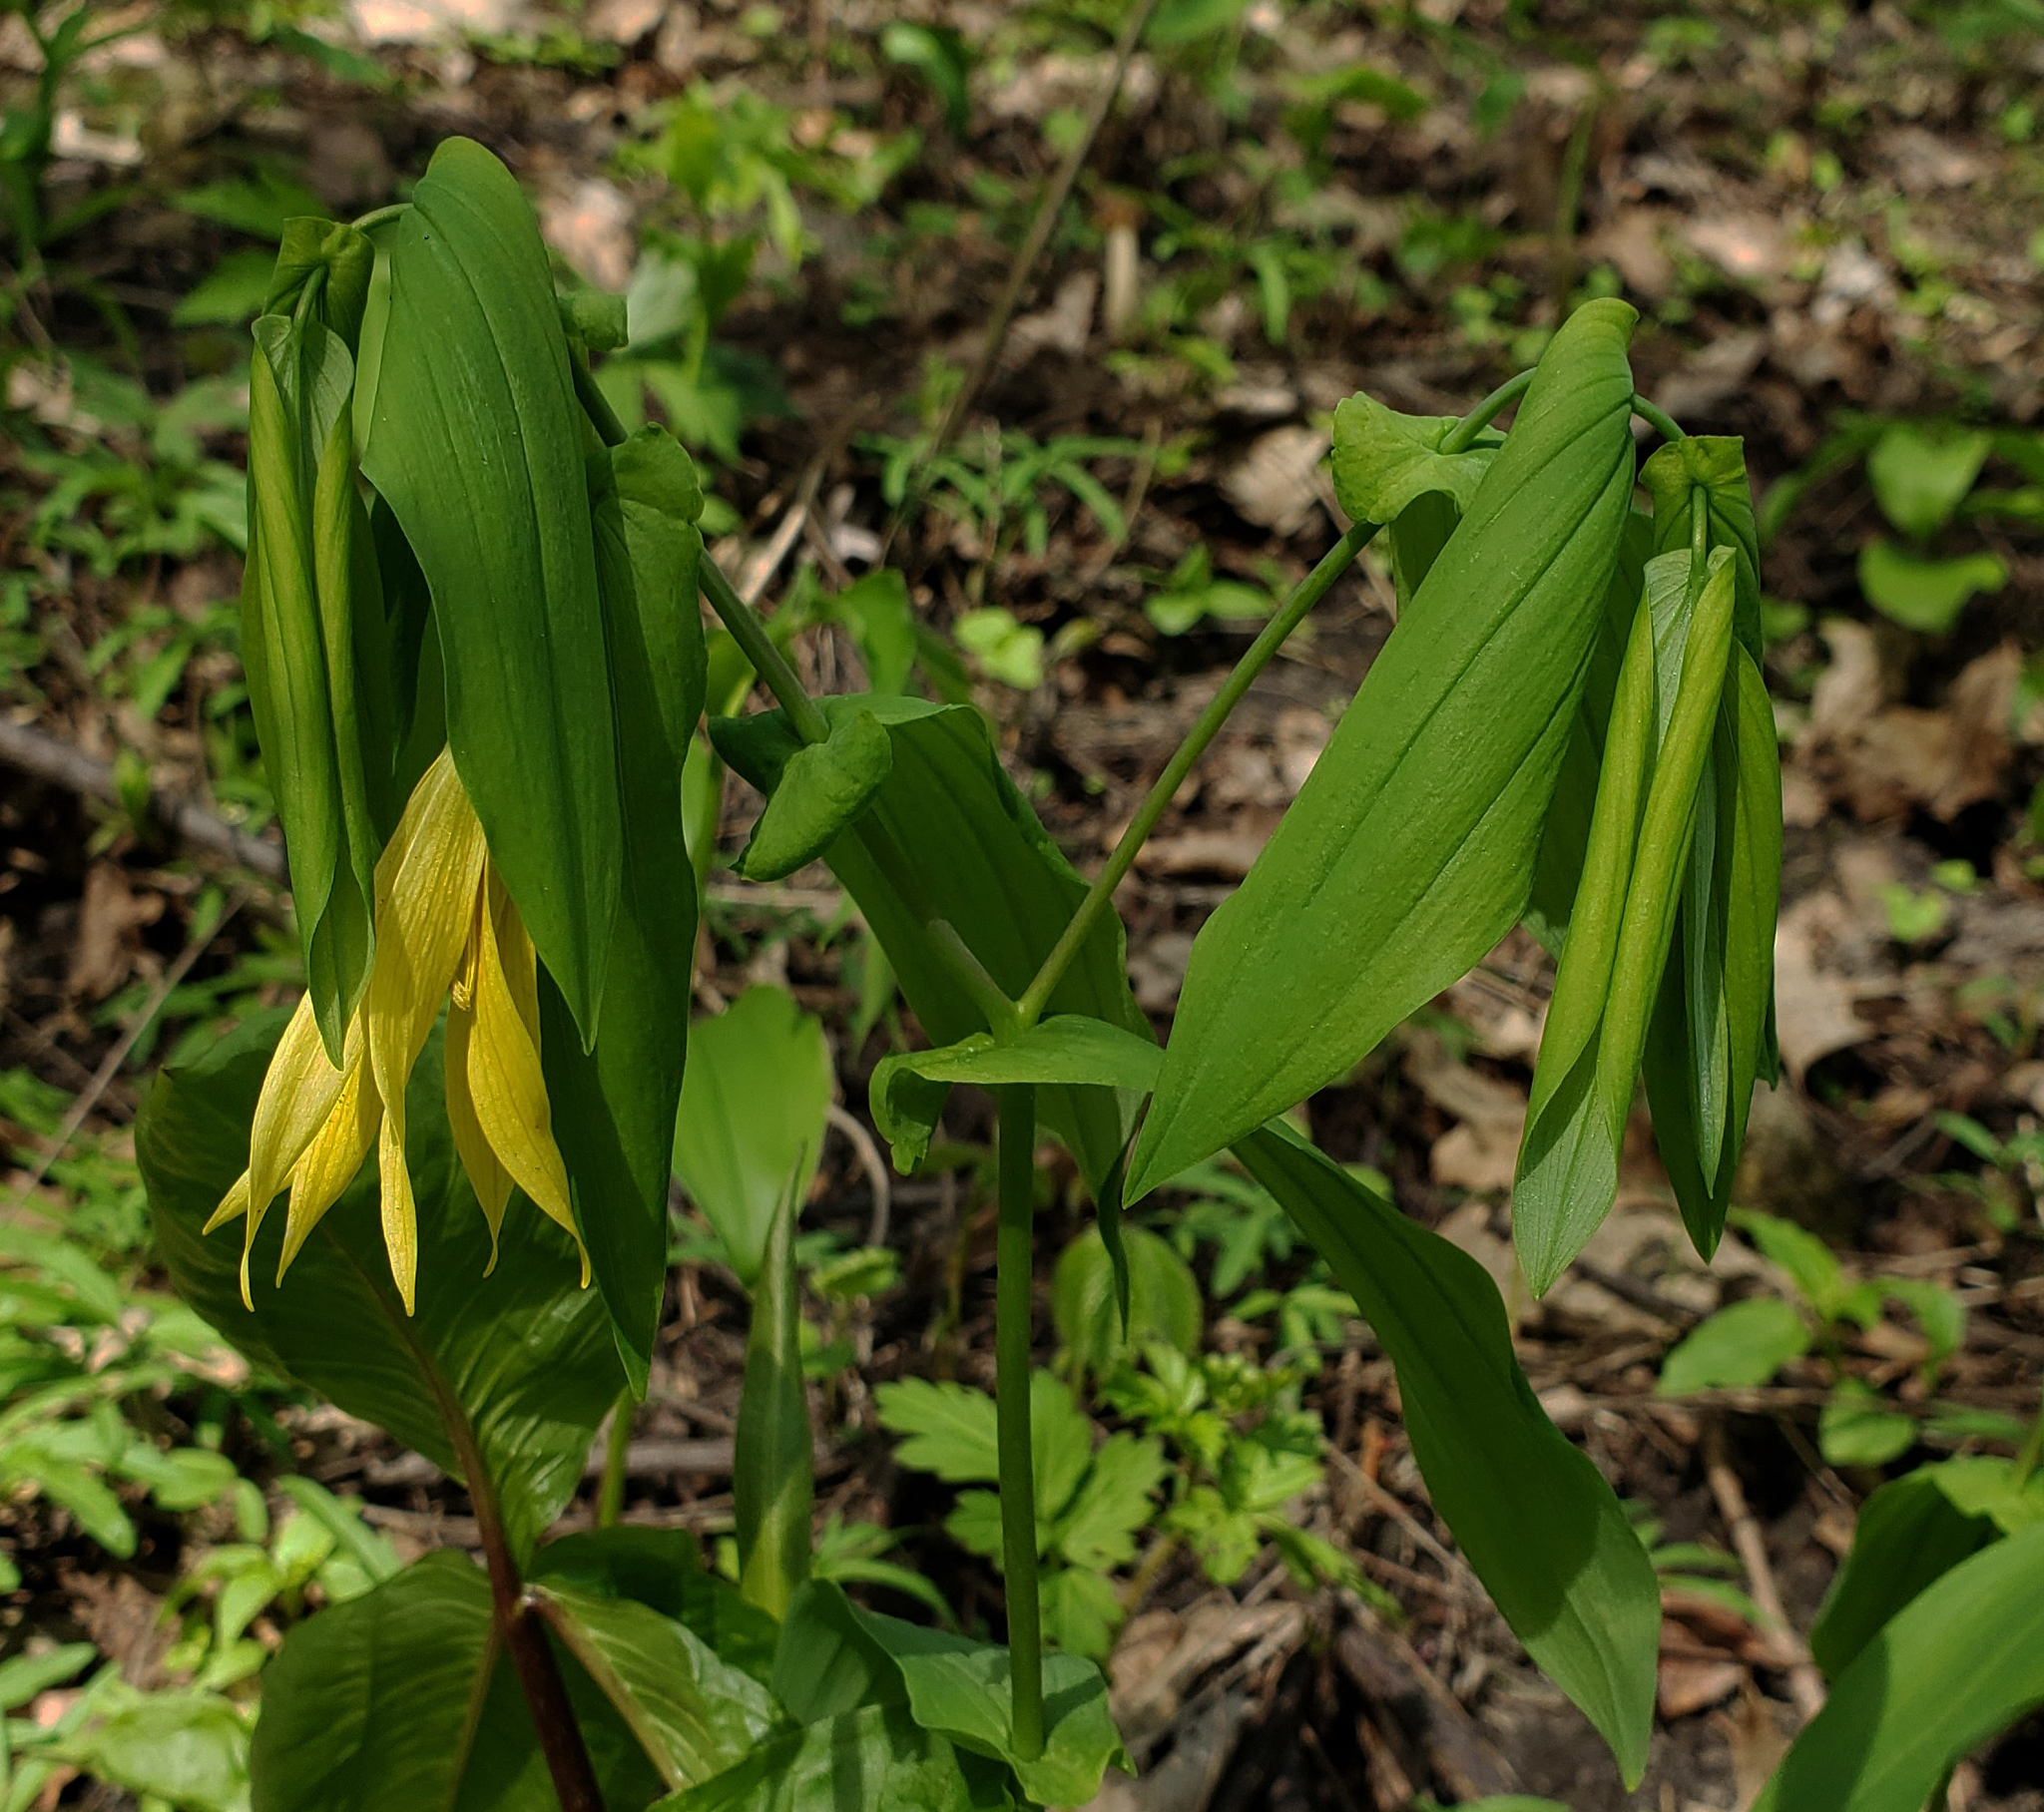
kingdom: Plantae
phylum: Tracheophyta
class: Liliopsida
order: Liliales
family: Colchicaceae
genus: Uvularia
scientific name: Uvularia grandiflora
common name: Bellwort
